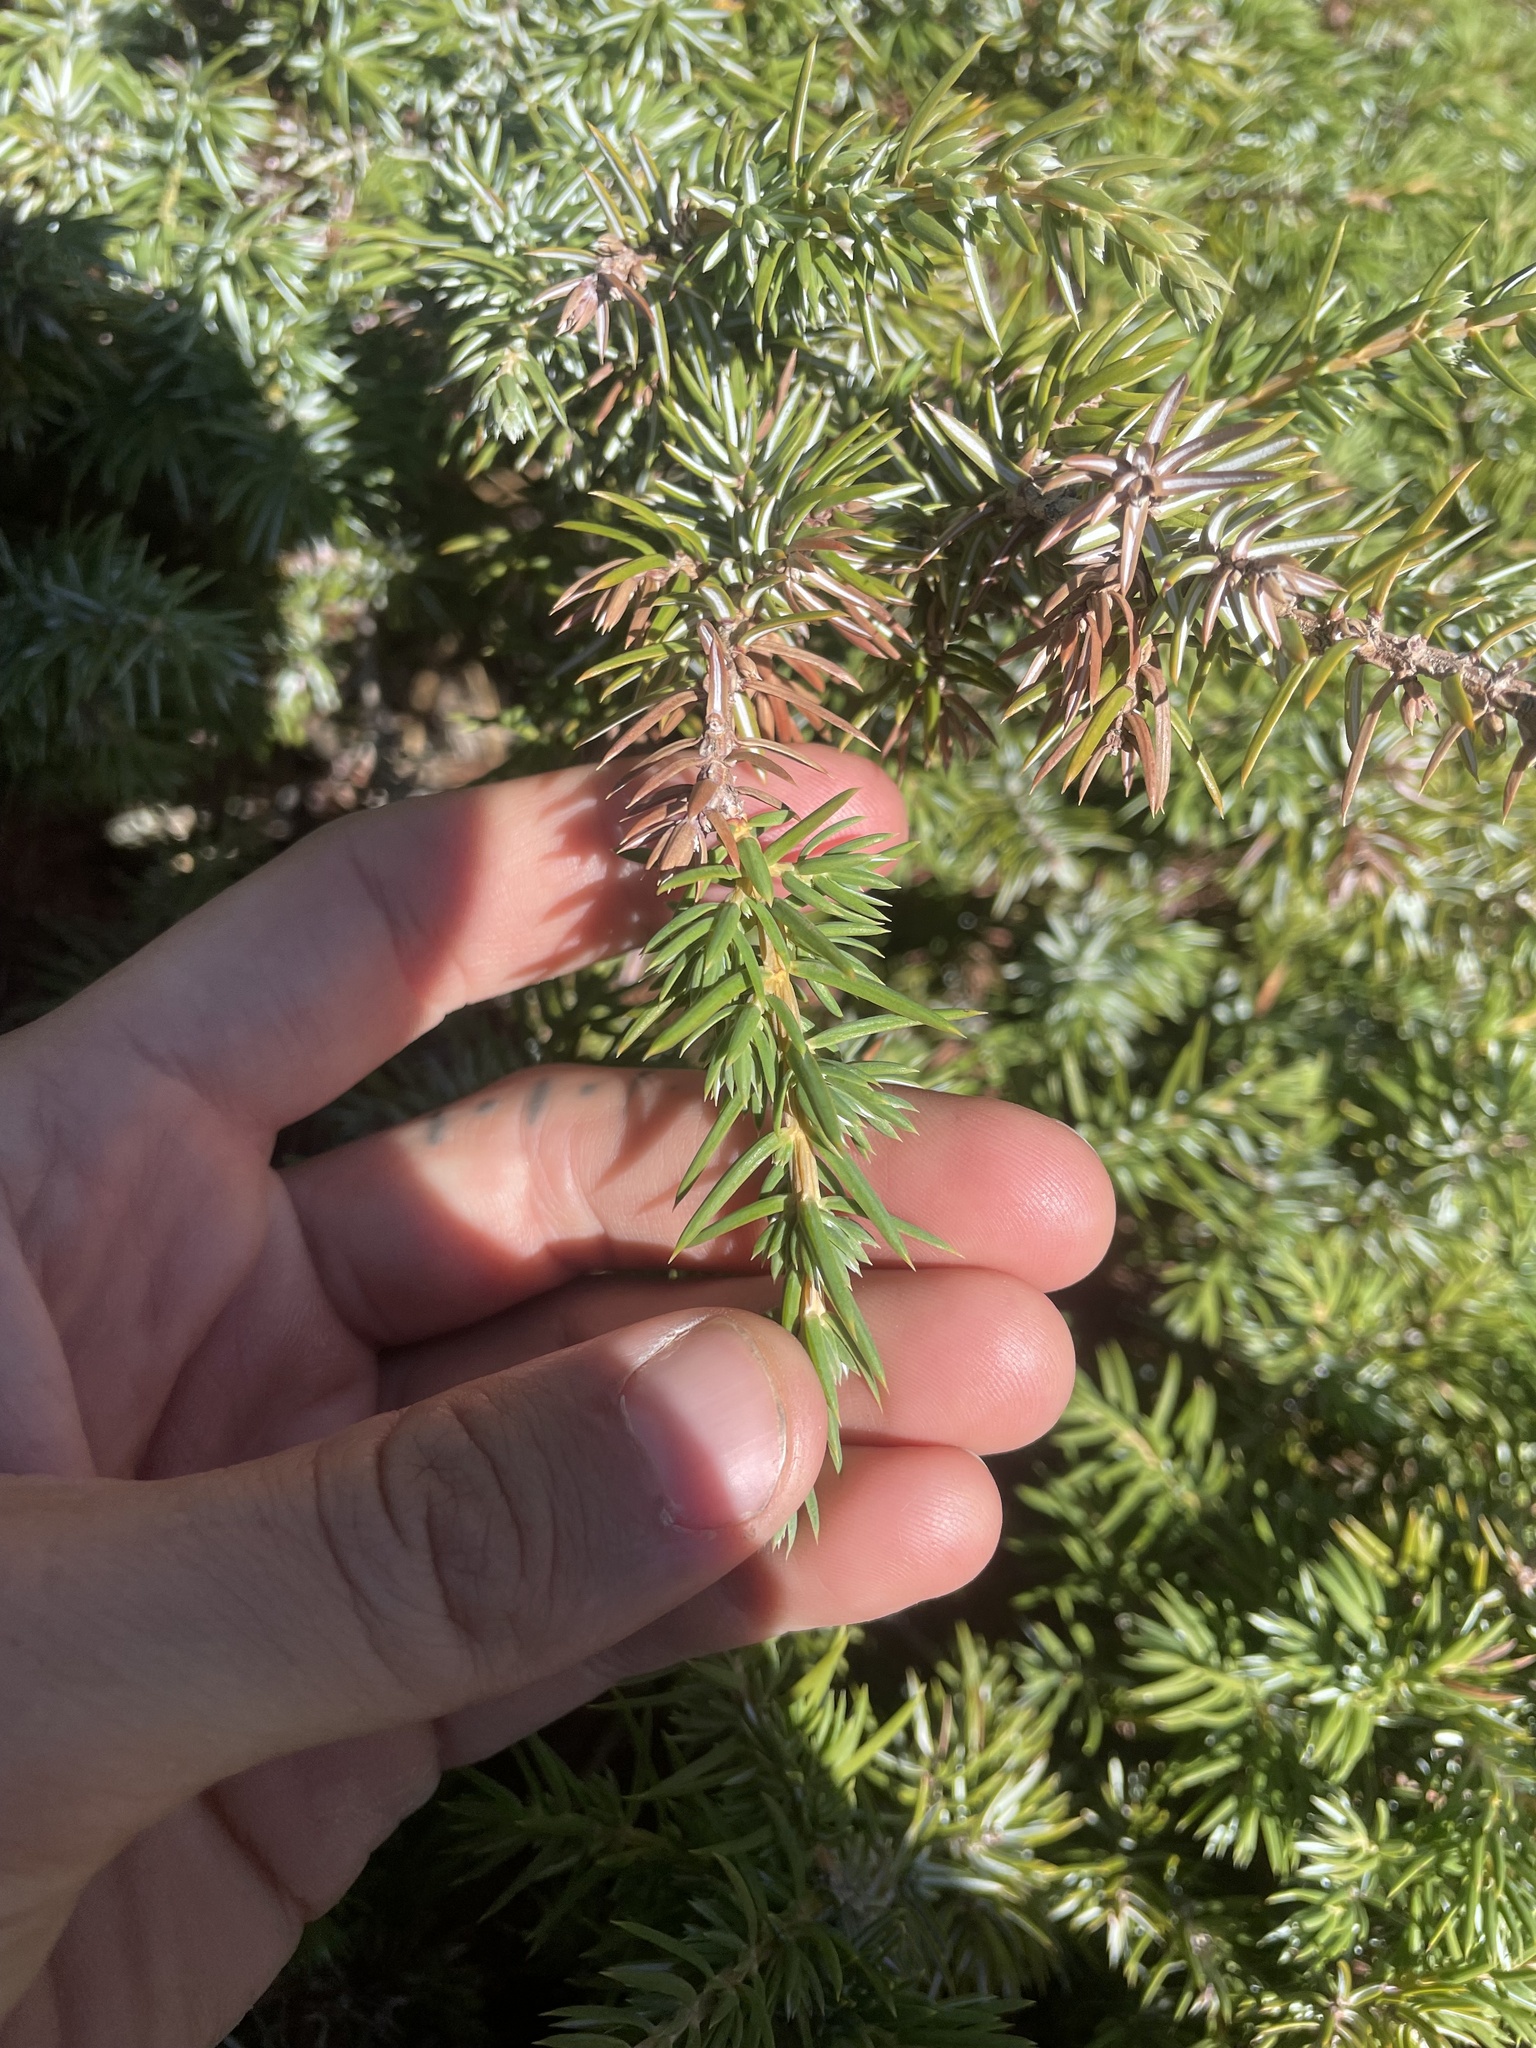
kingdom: Plantae
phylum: Tracheophyta
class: Pinopsida
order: Pinales
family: Cupressaceae
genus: Juniperus
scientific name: Juniperus communis
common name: Common juniper
